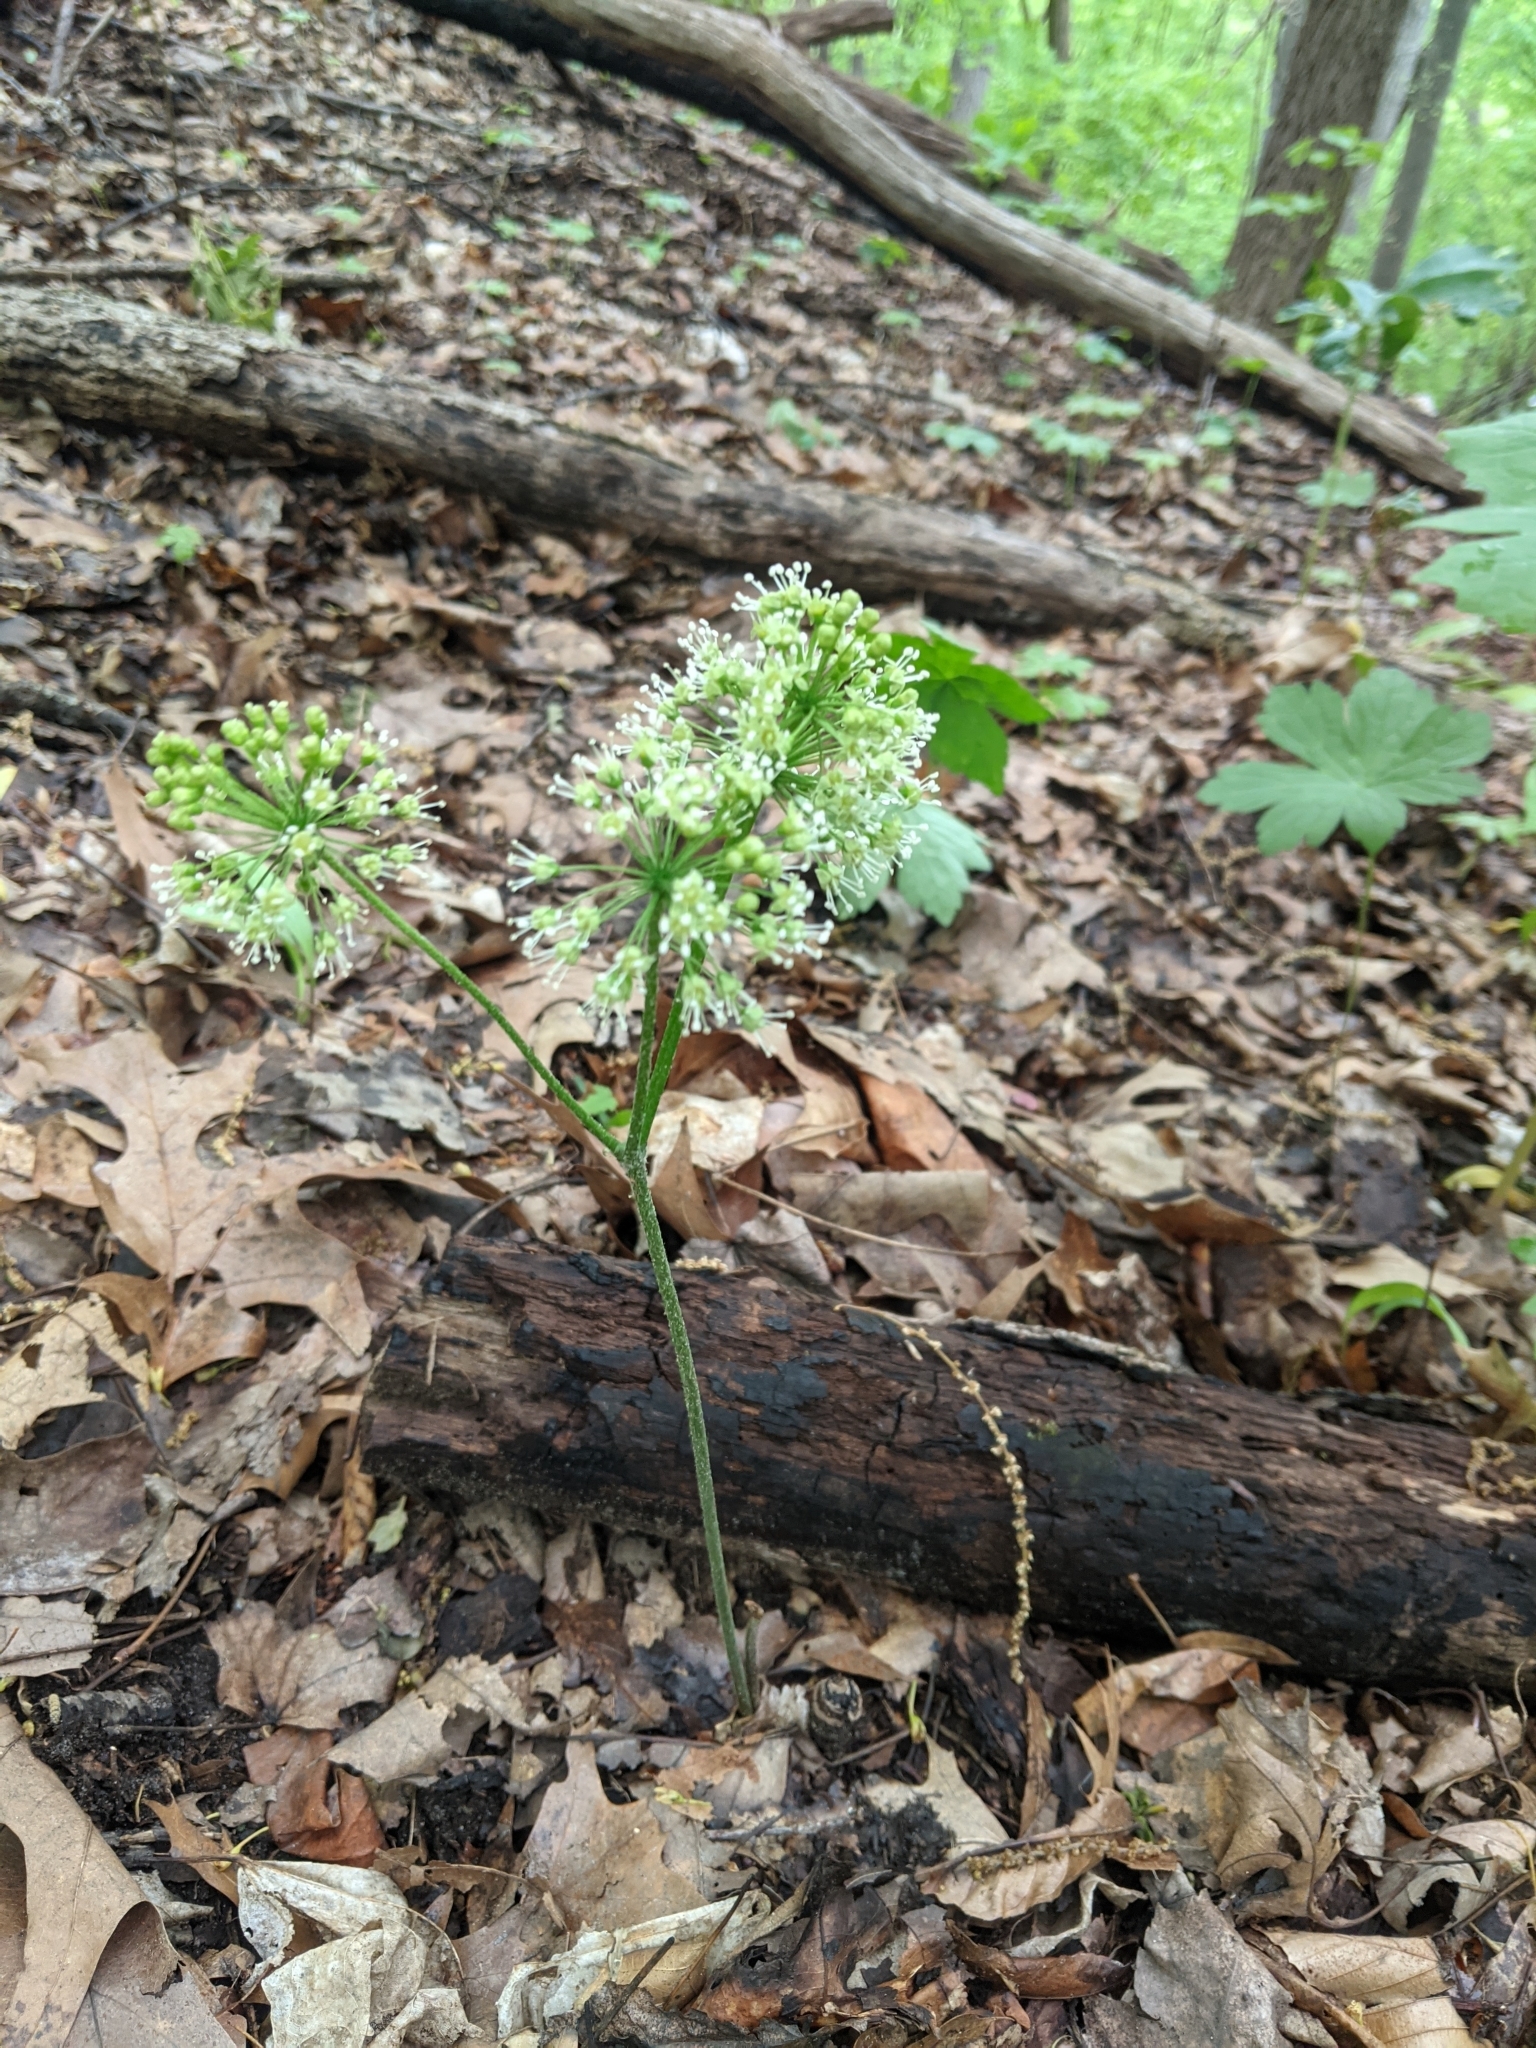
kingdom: Plantae
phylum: Tracheophyta
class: Magnoliopsida
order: Apiales
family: Araliaceae
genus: Aralia
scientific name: Aralia nudicaulis
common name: Wild sarsaparilla
